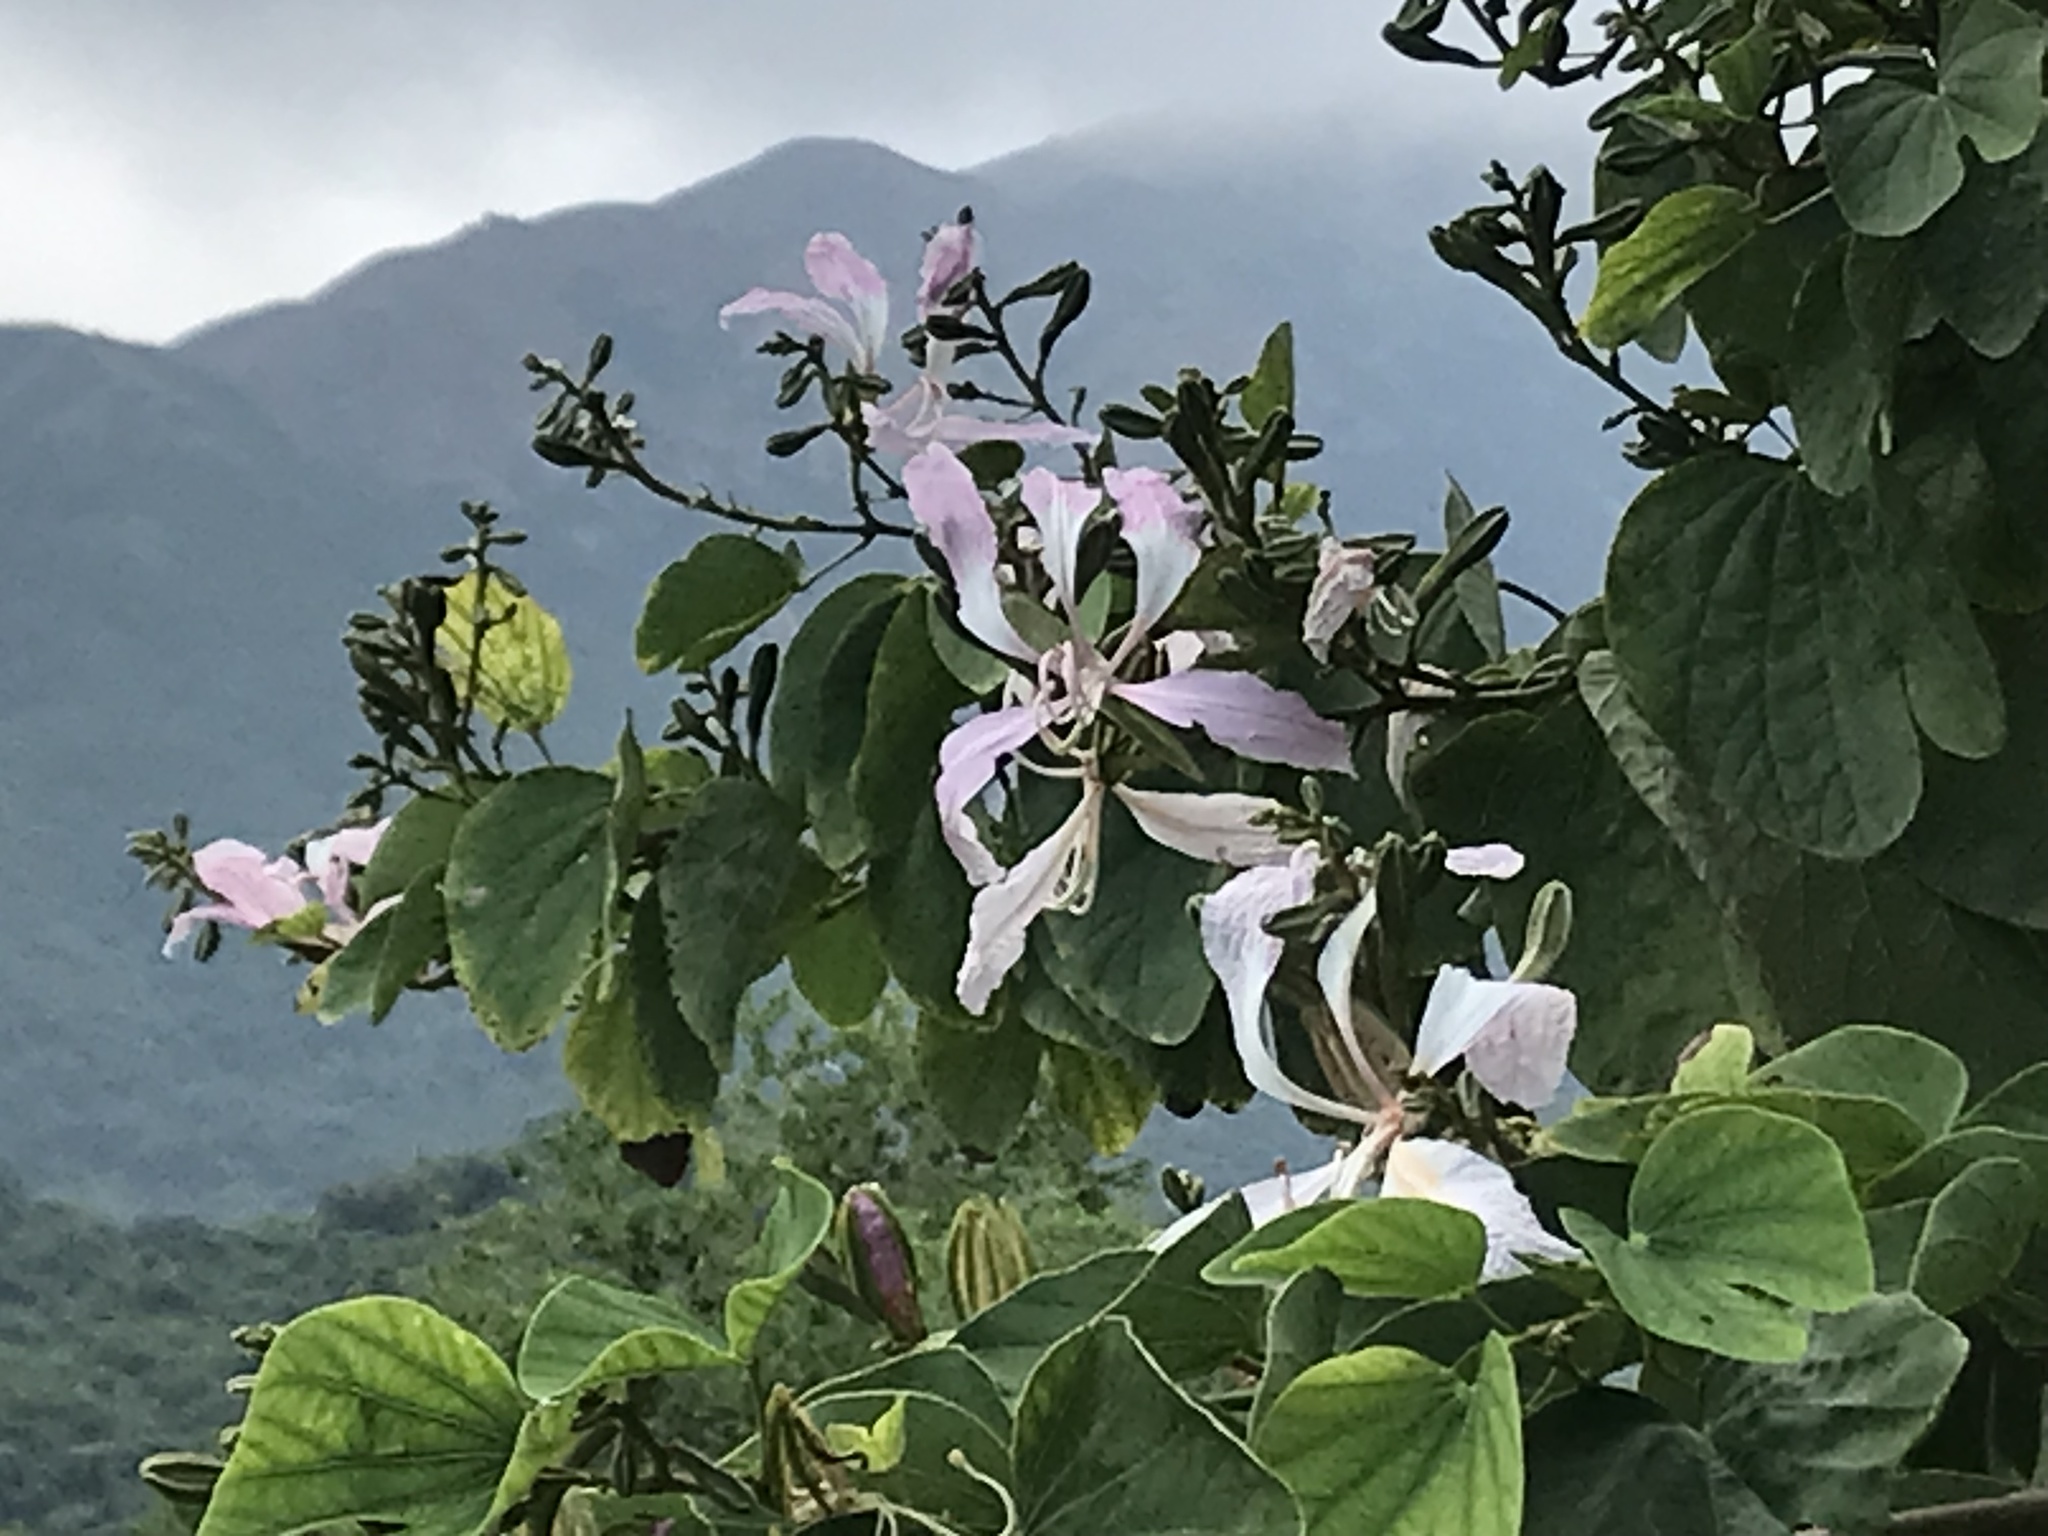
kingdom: Plantae
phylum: Tracheophyta
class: Magnoliopsida
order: Fabales
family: Fabaceae
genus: Bauhinia
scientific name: Bauhinia purpurea
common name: Butterfly-tree
